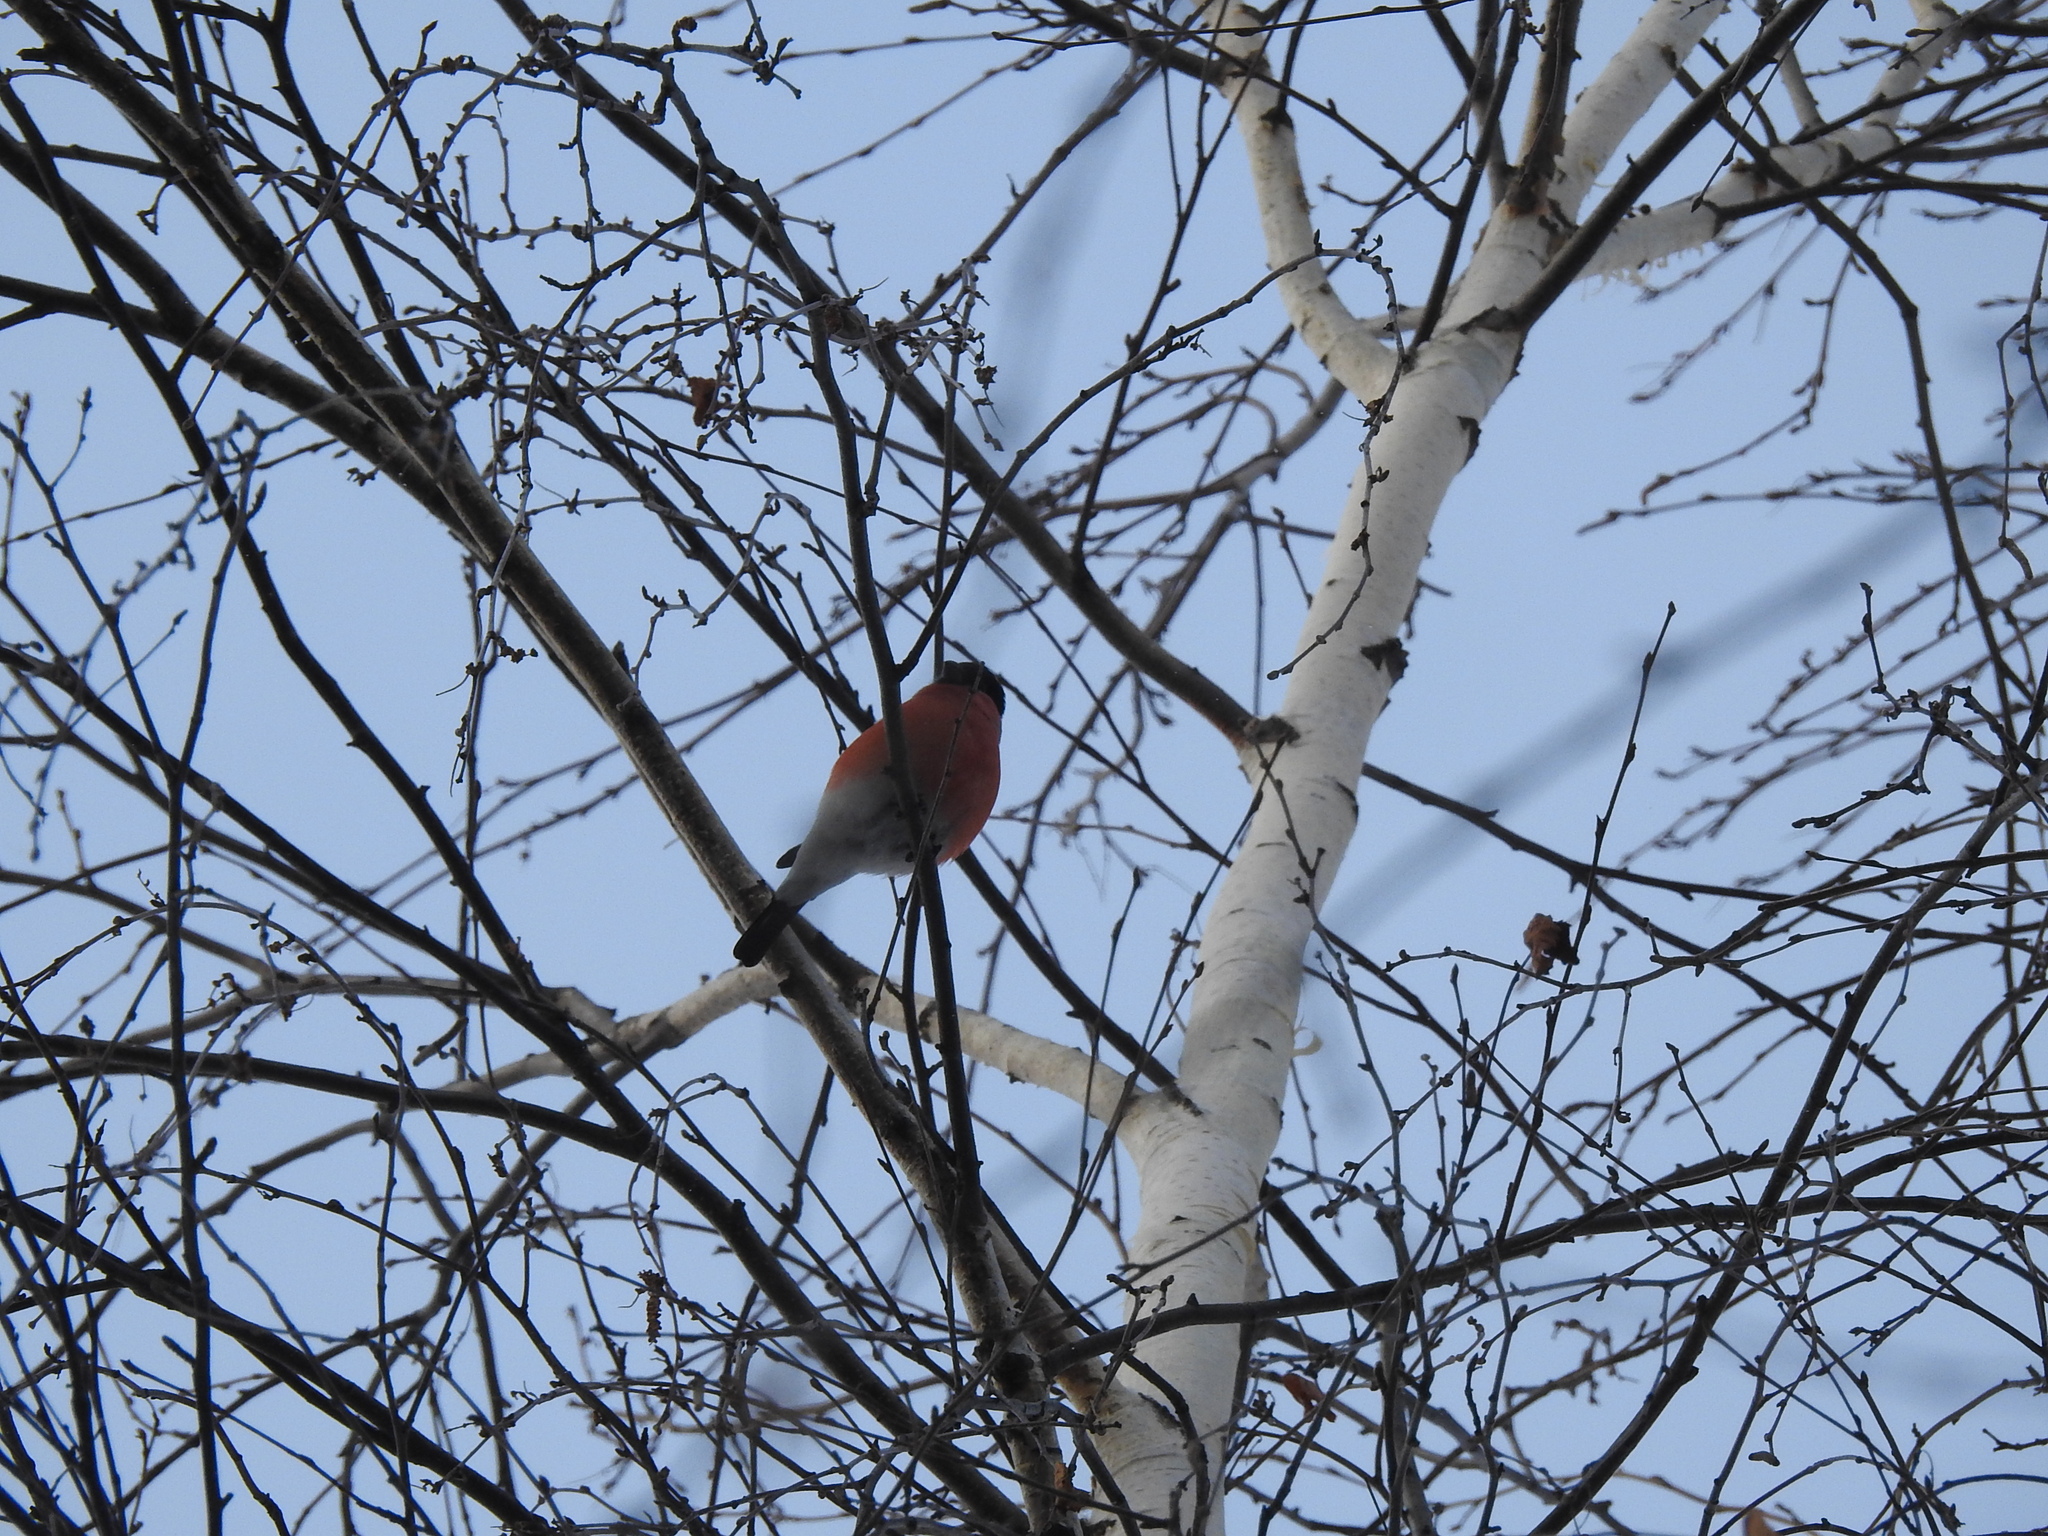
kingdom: Animalia
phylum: Chordata
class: Aves
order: Passeriformes
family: Fringillidae
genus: Pyrrhula
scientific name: Pyrrhula pyrrhula
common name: Eurasian bullfinch
